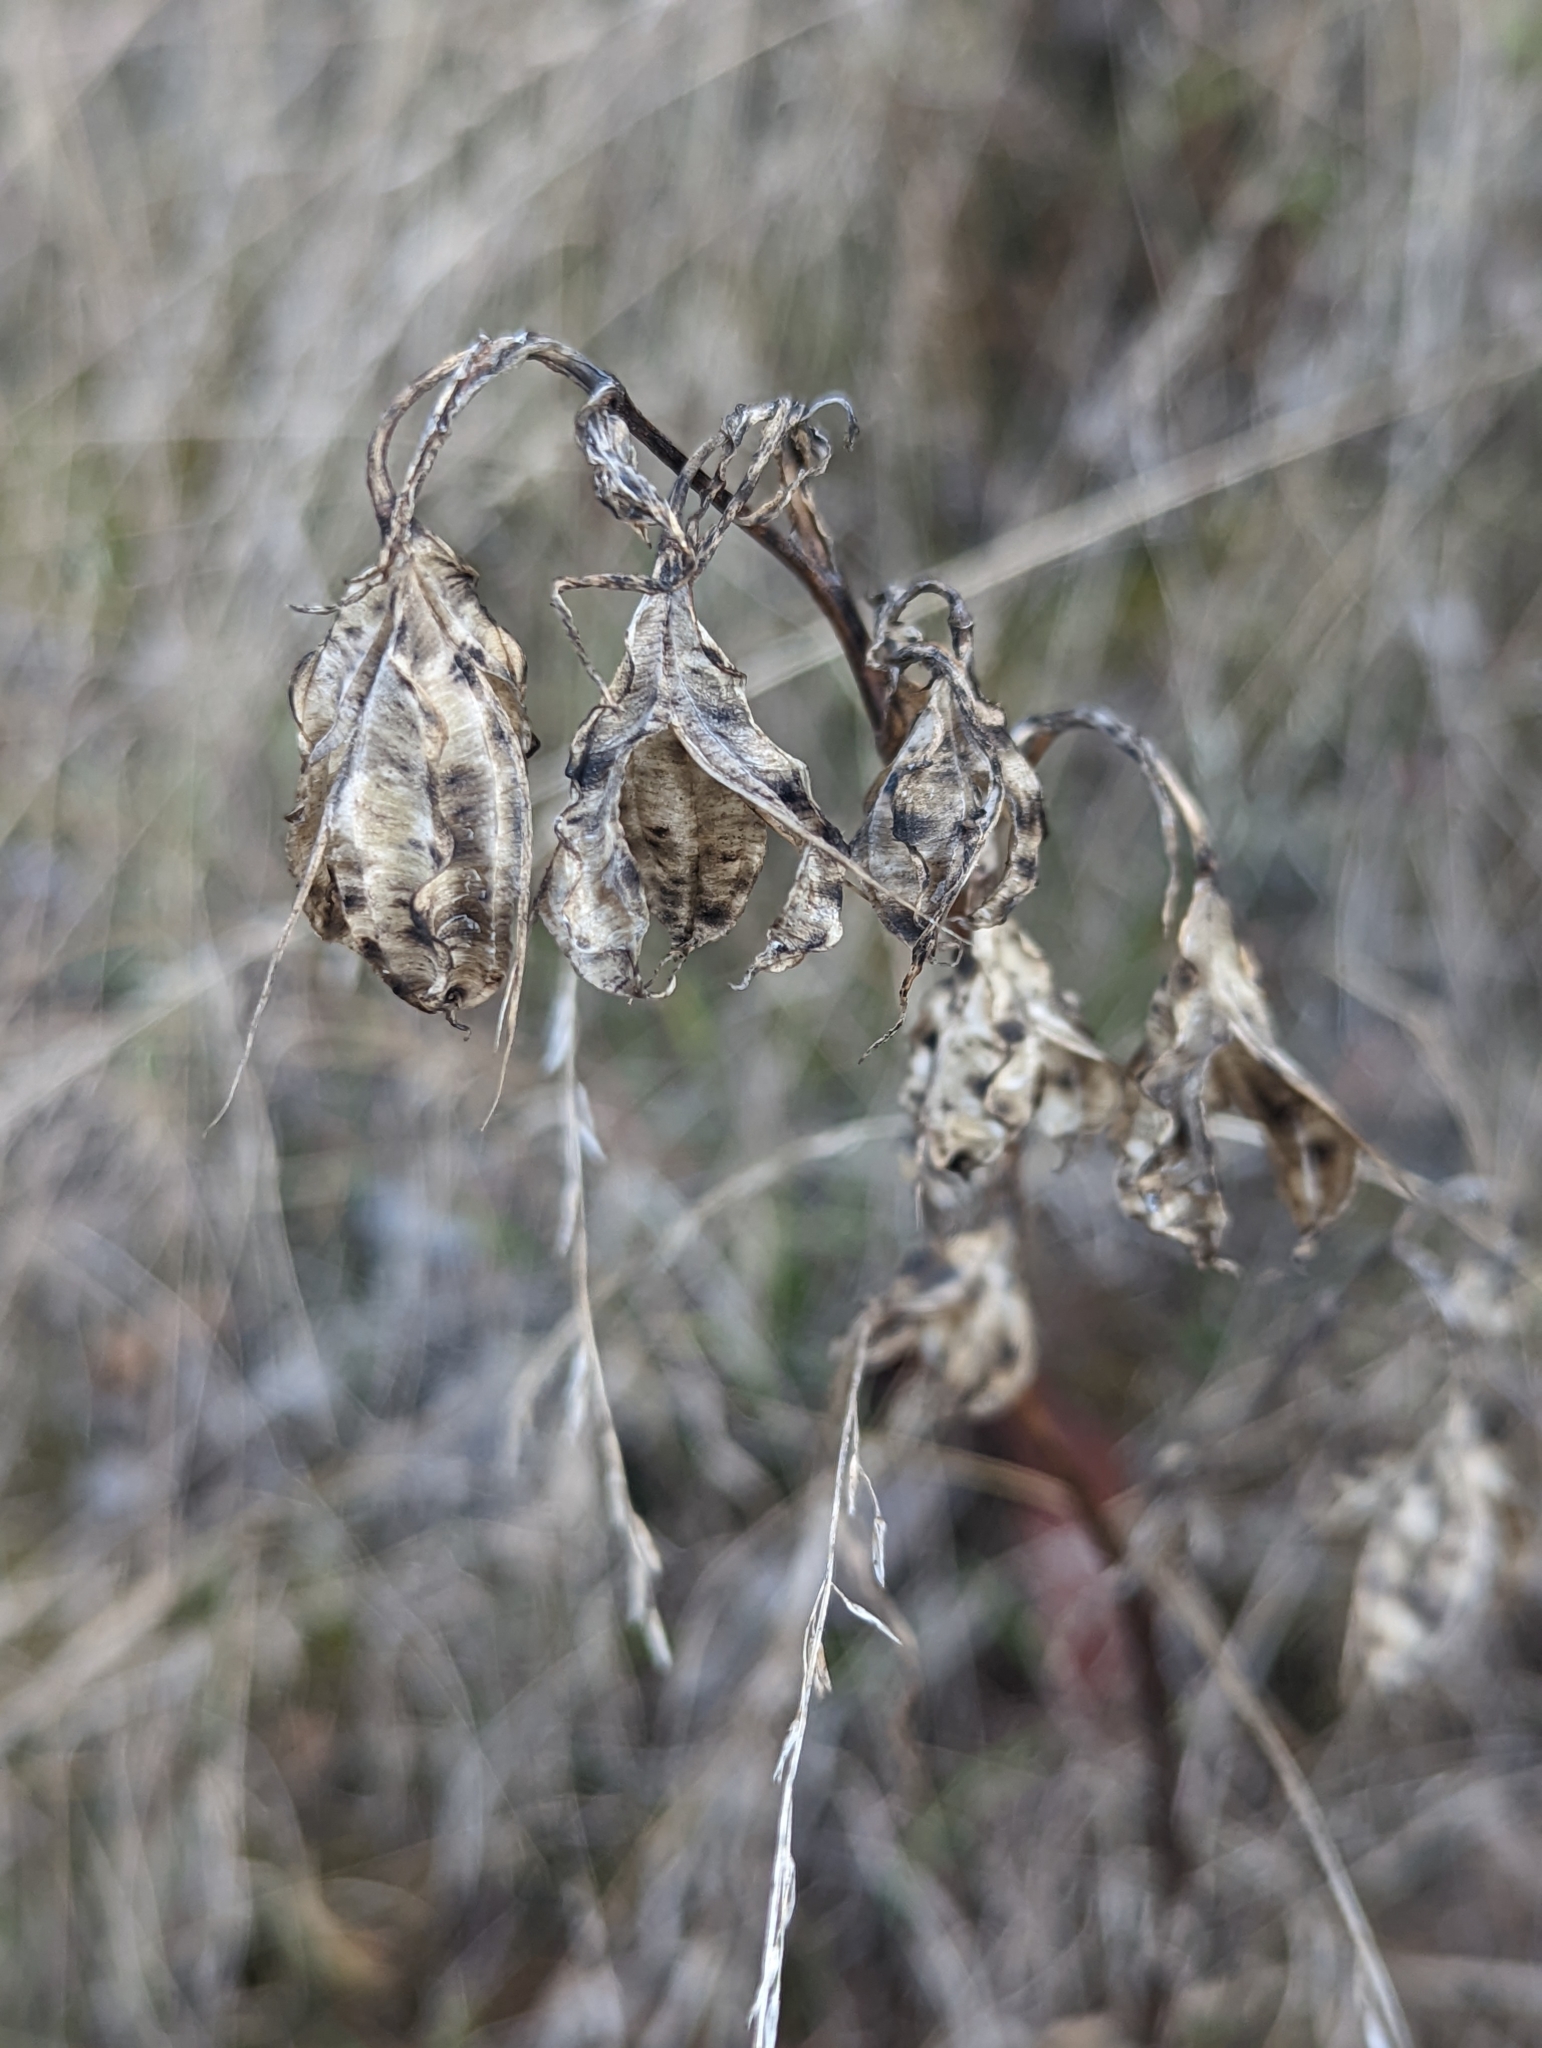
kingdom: Plantae
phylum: Tracheophyta
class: Liliopsida
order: Liliales
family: Liliaceae
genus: Calochortus
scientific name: Calochortus albus
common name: Fairy-lantern
